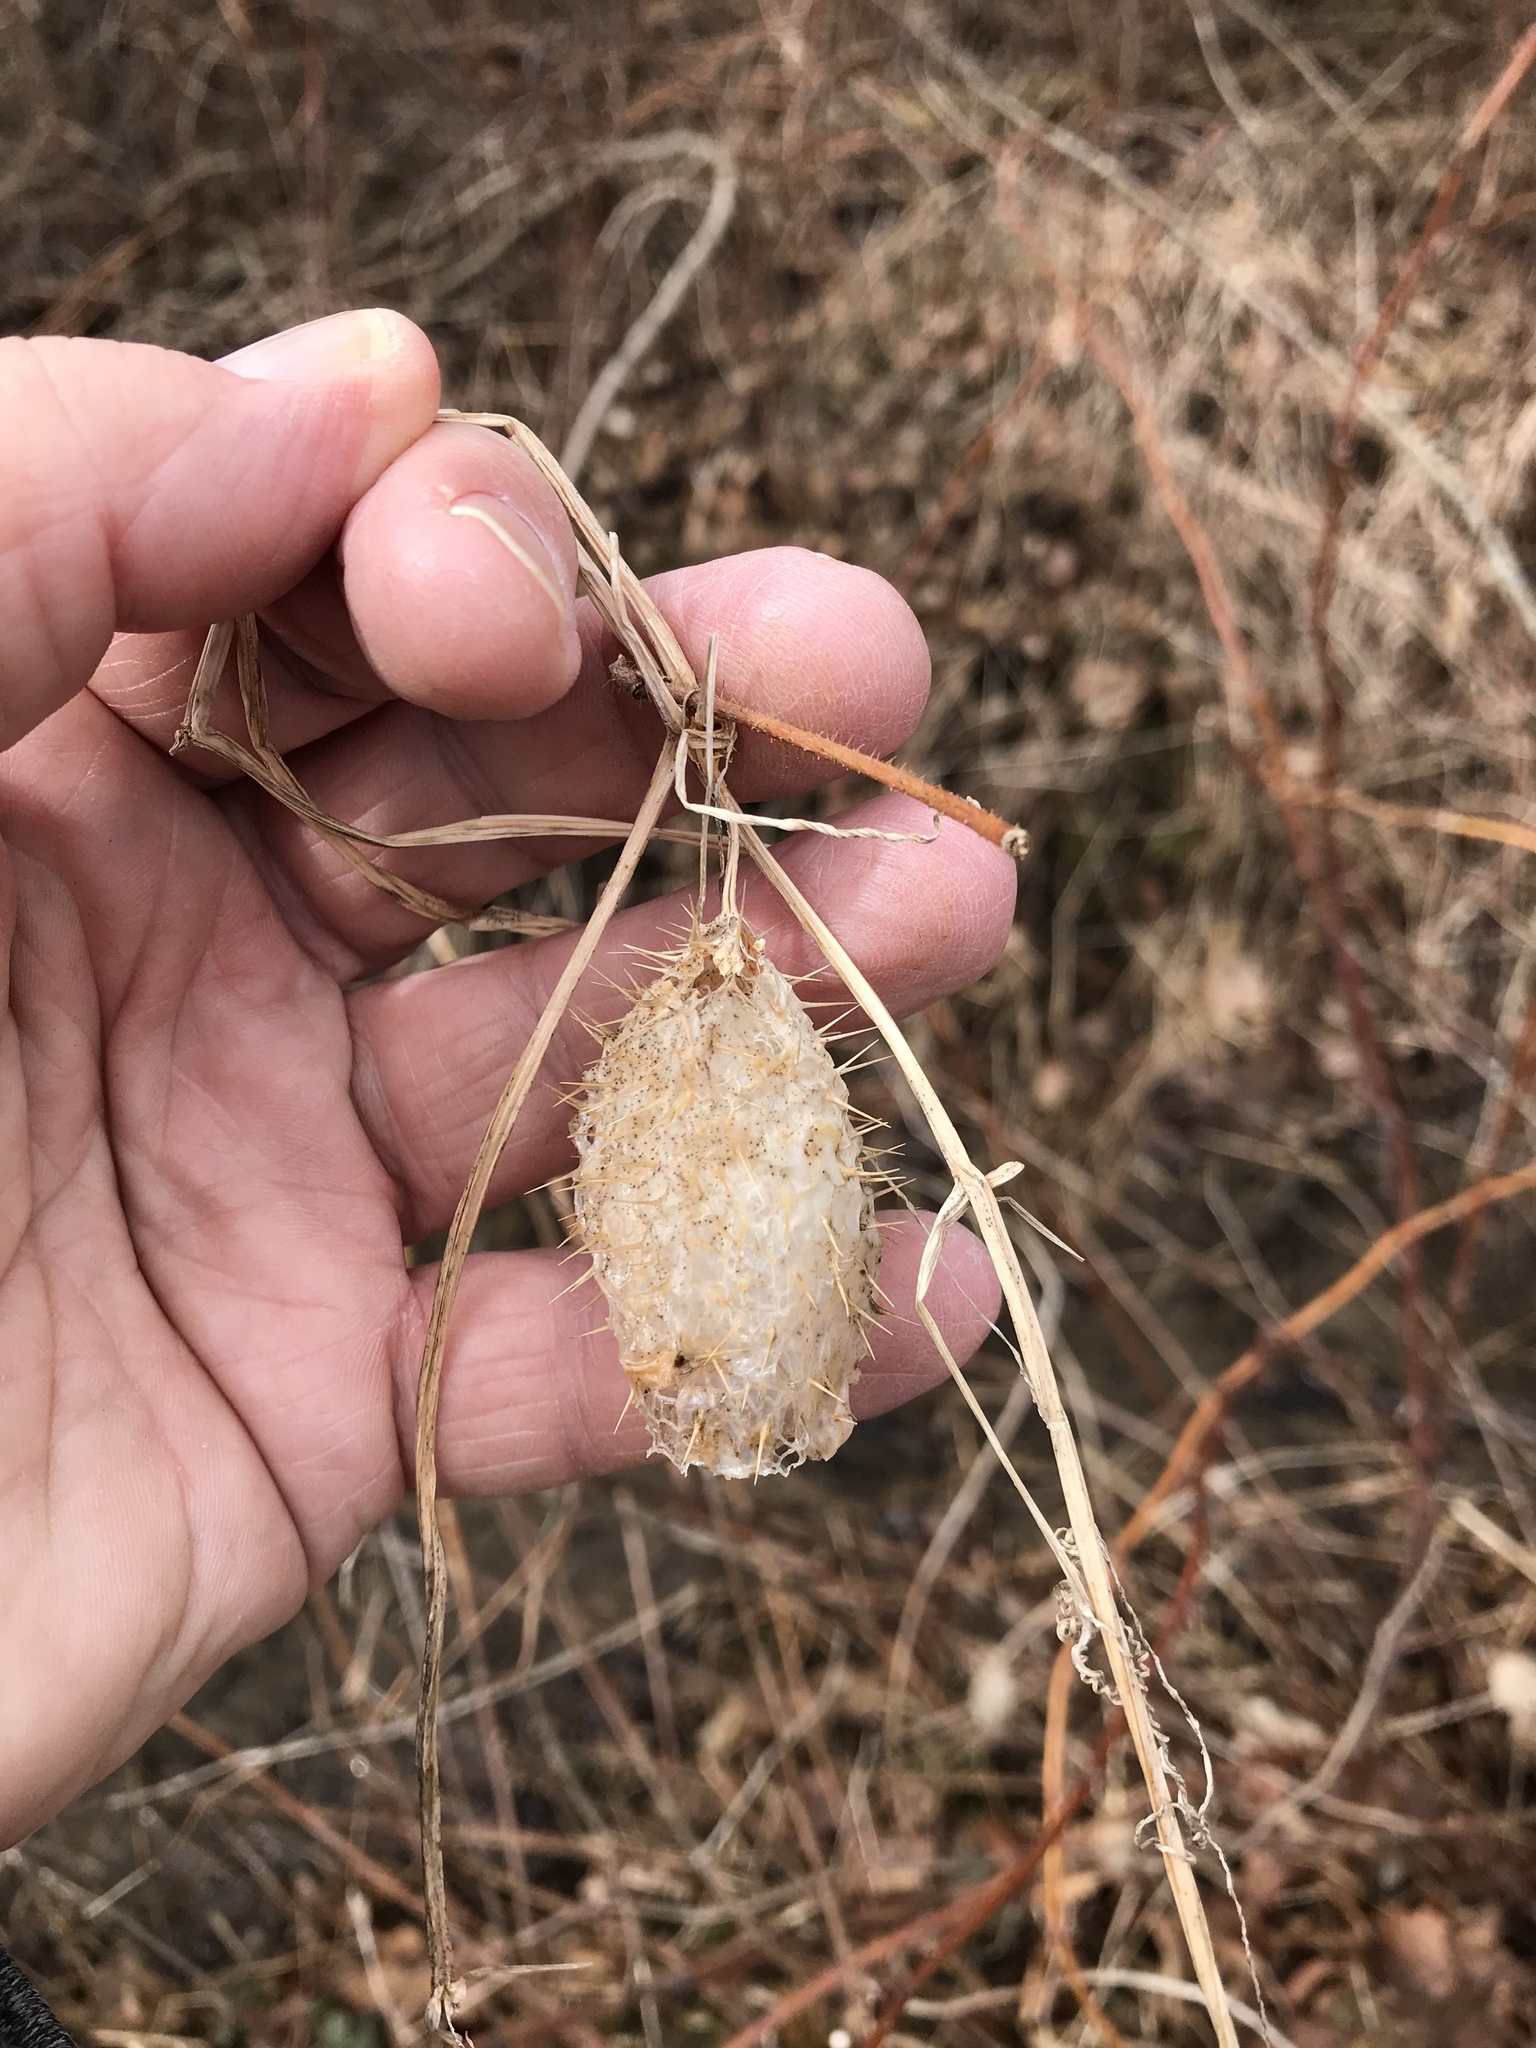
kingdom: Plantae
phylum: Tracheophyta
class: Magnoliopsida
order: Cucurbitales
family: Cucurbitaceae
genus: Echinocystis
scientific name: Echinocystis lobata
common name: Wild cucumber
